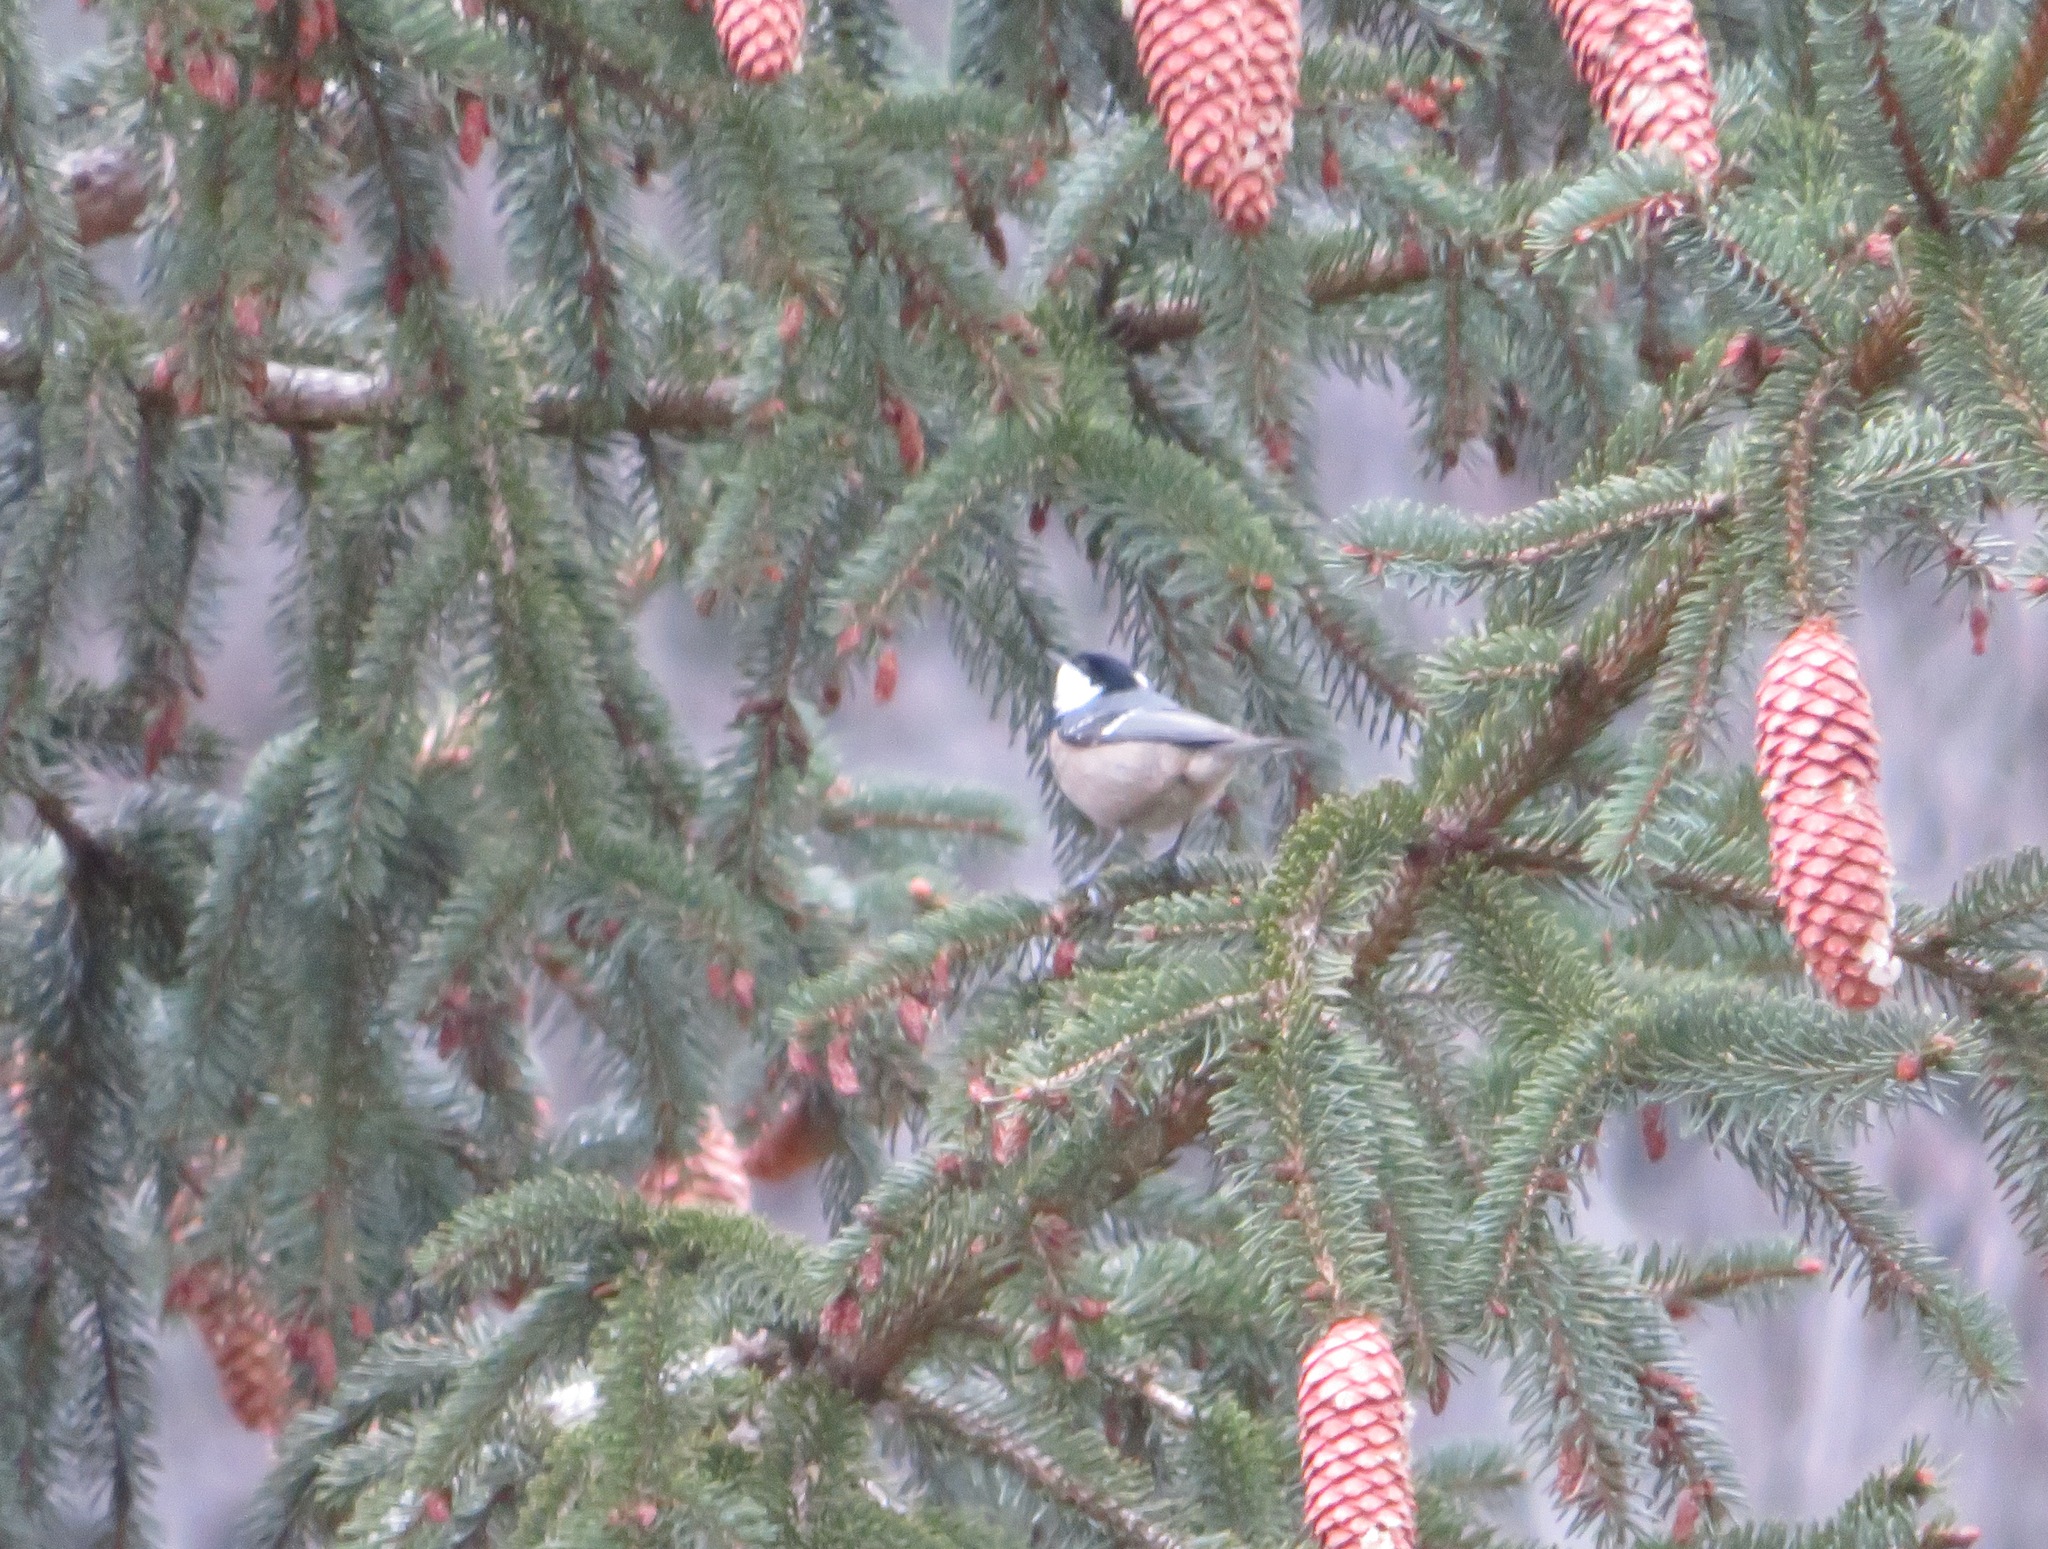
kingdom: Animalia
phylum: Chordata
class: Aves
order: Passeriformes
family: Paridae
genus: Periparus
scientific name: Periparus ater
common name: Coal tit
